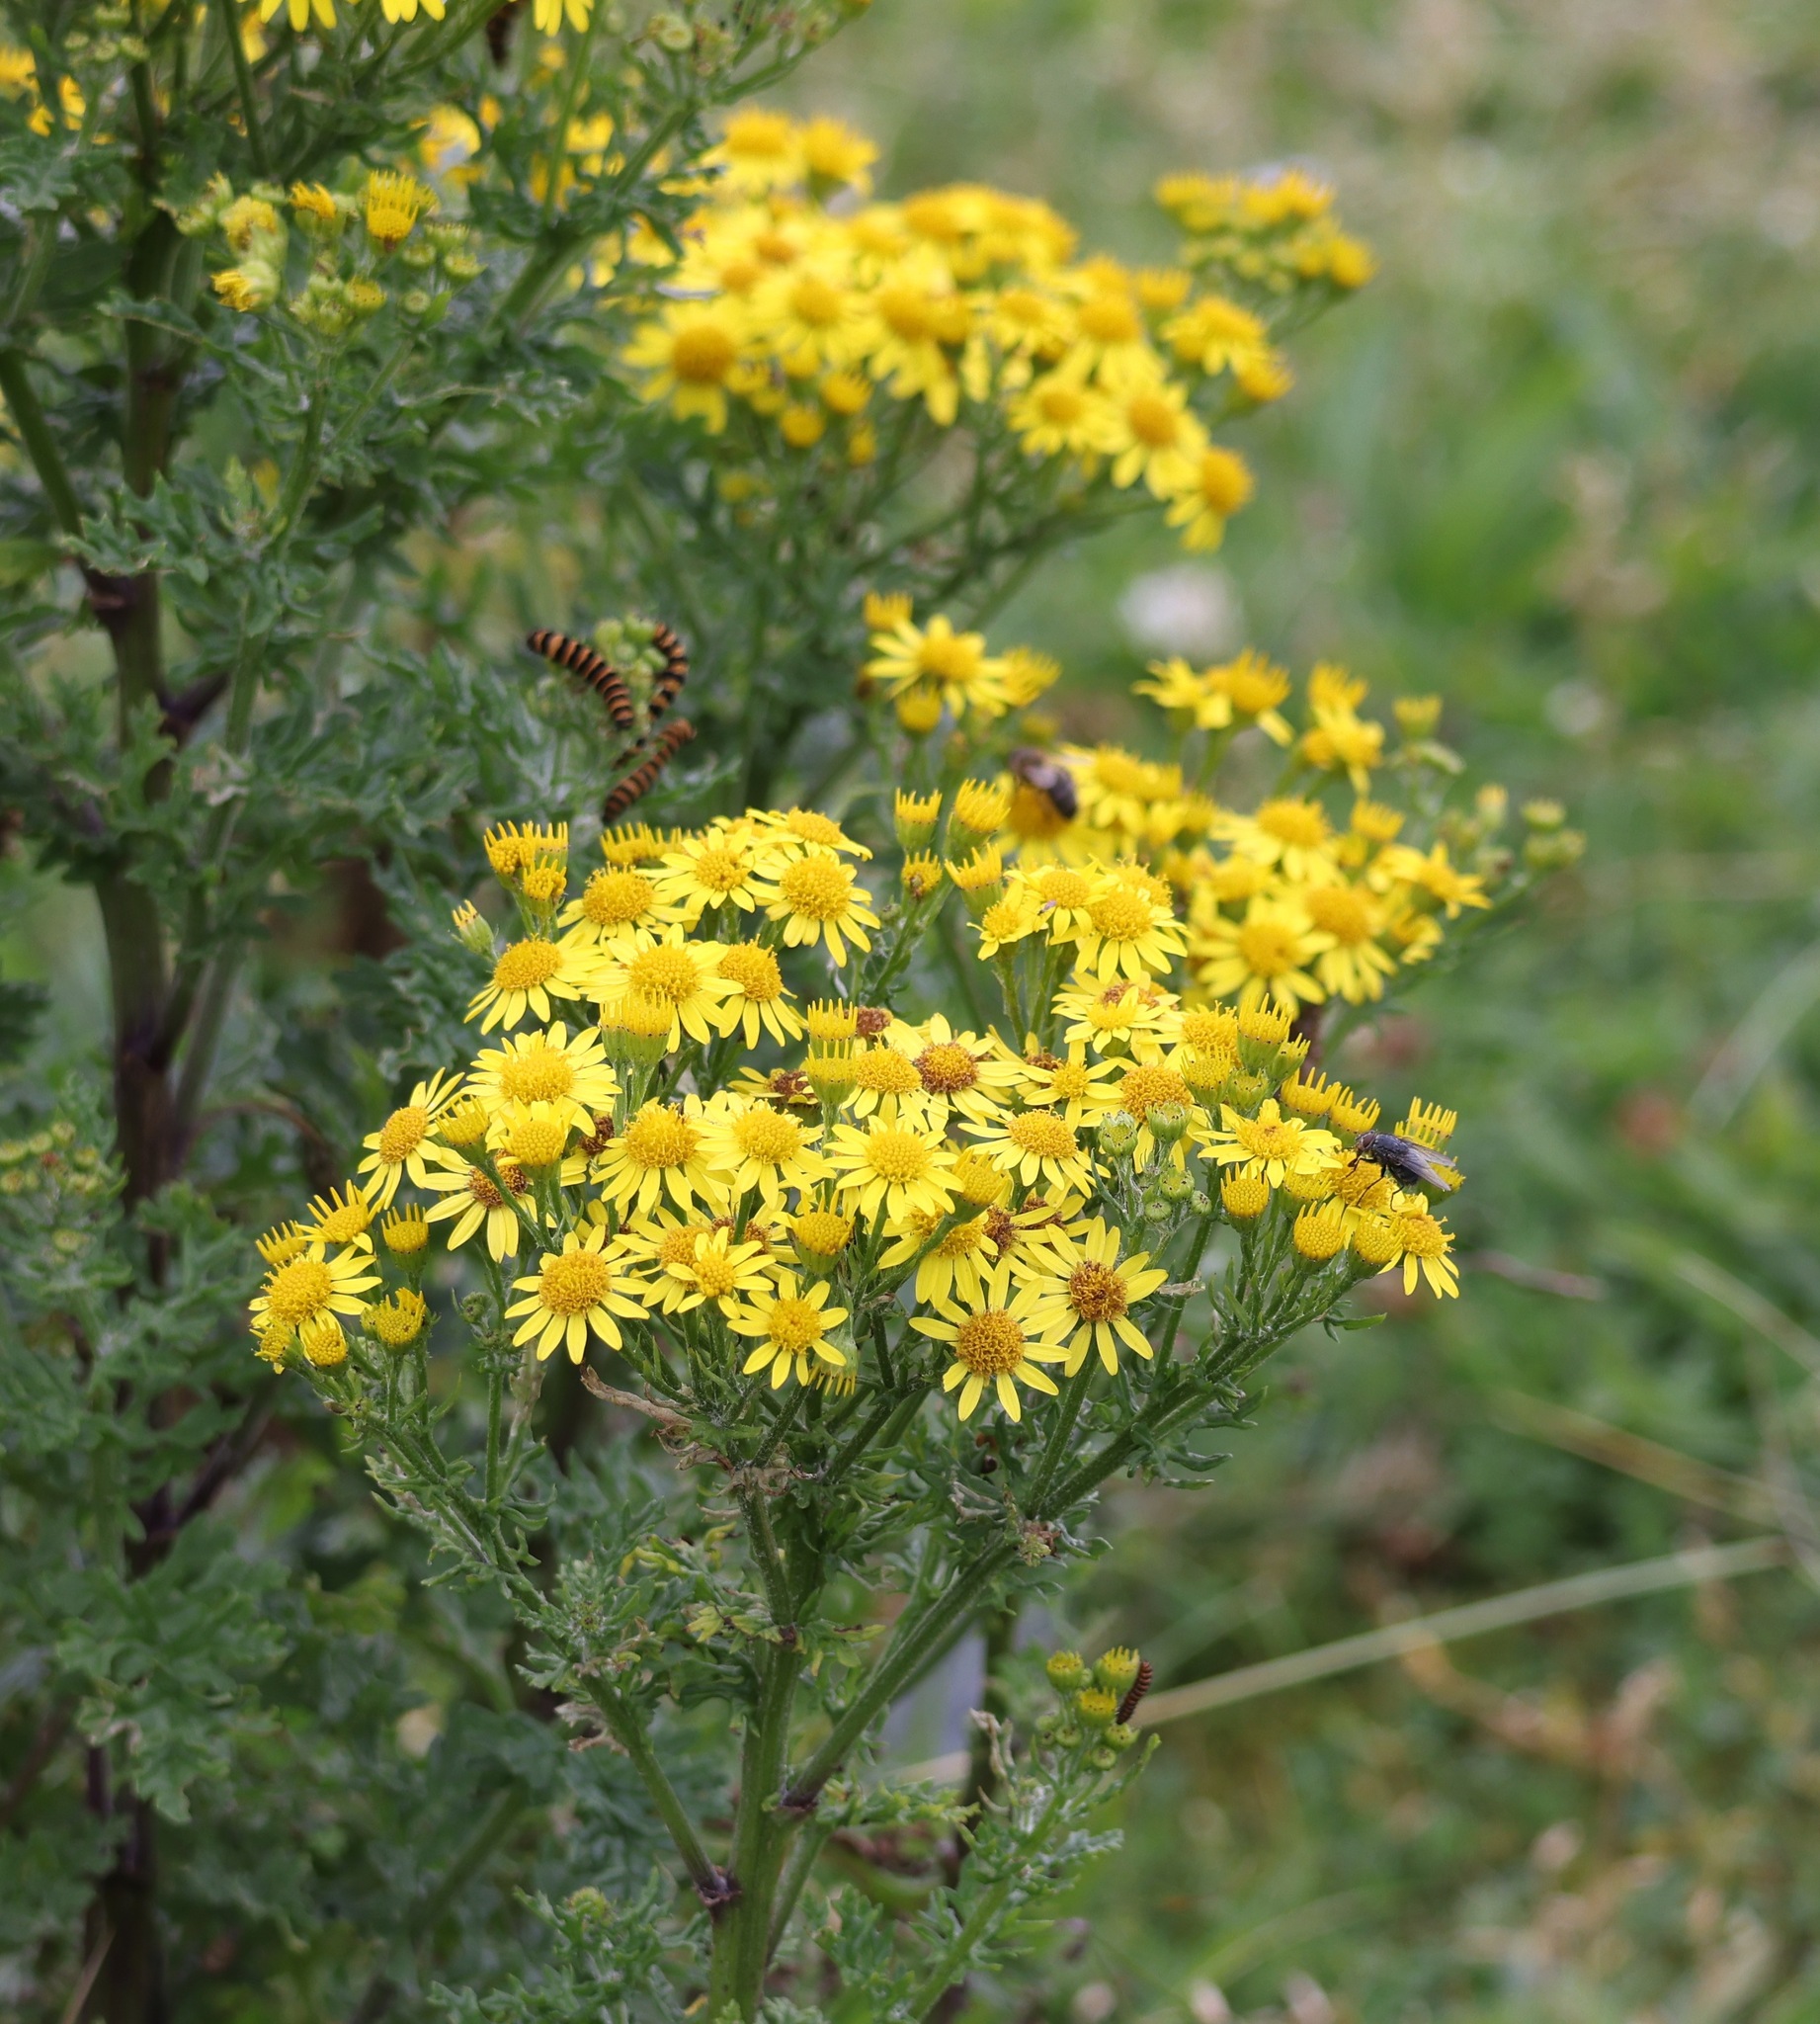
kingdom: Plantae
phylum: Tracheophyta
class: Magnoliopsida
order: Asterales
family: Asteraceae
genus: Jacobaea
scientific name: Jacobaea vulgaris
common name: Stinking willie
